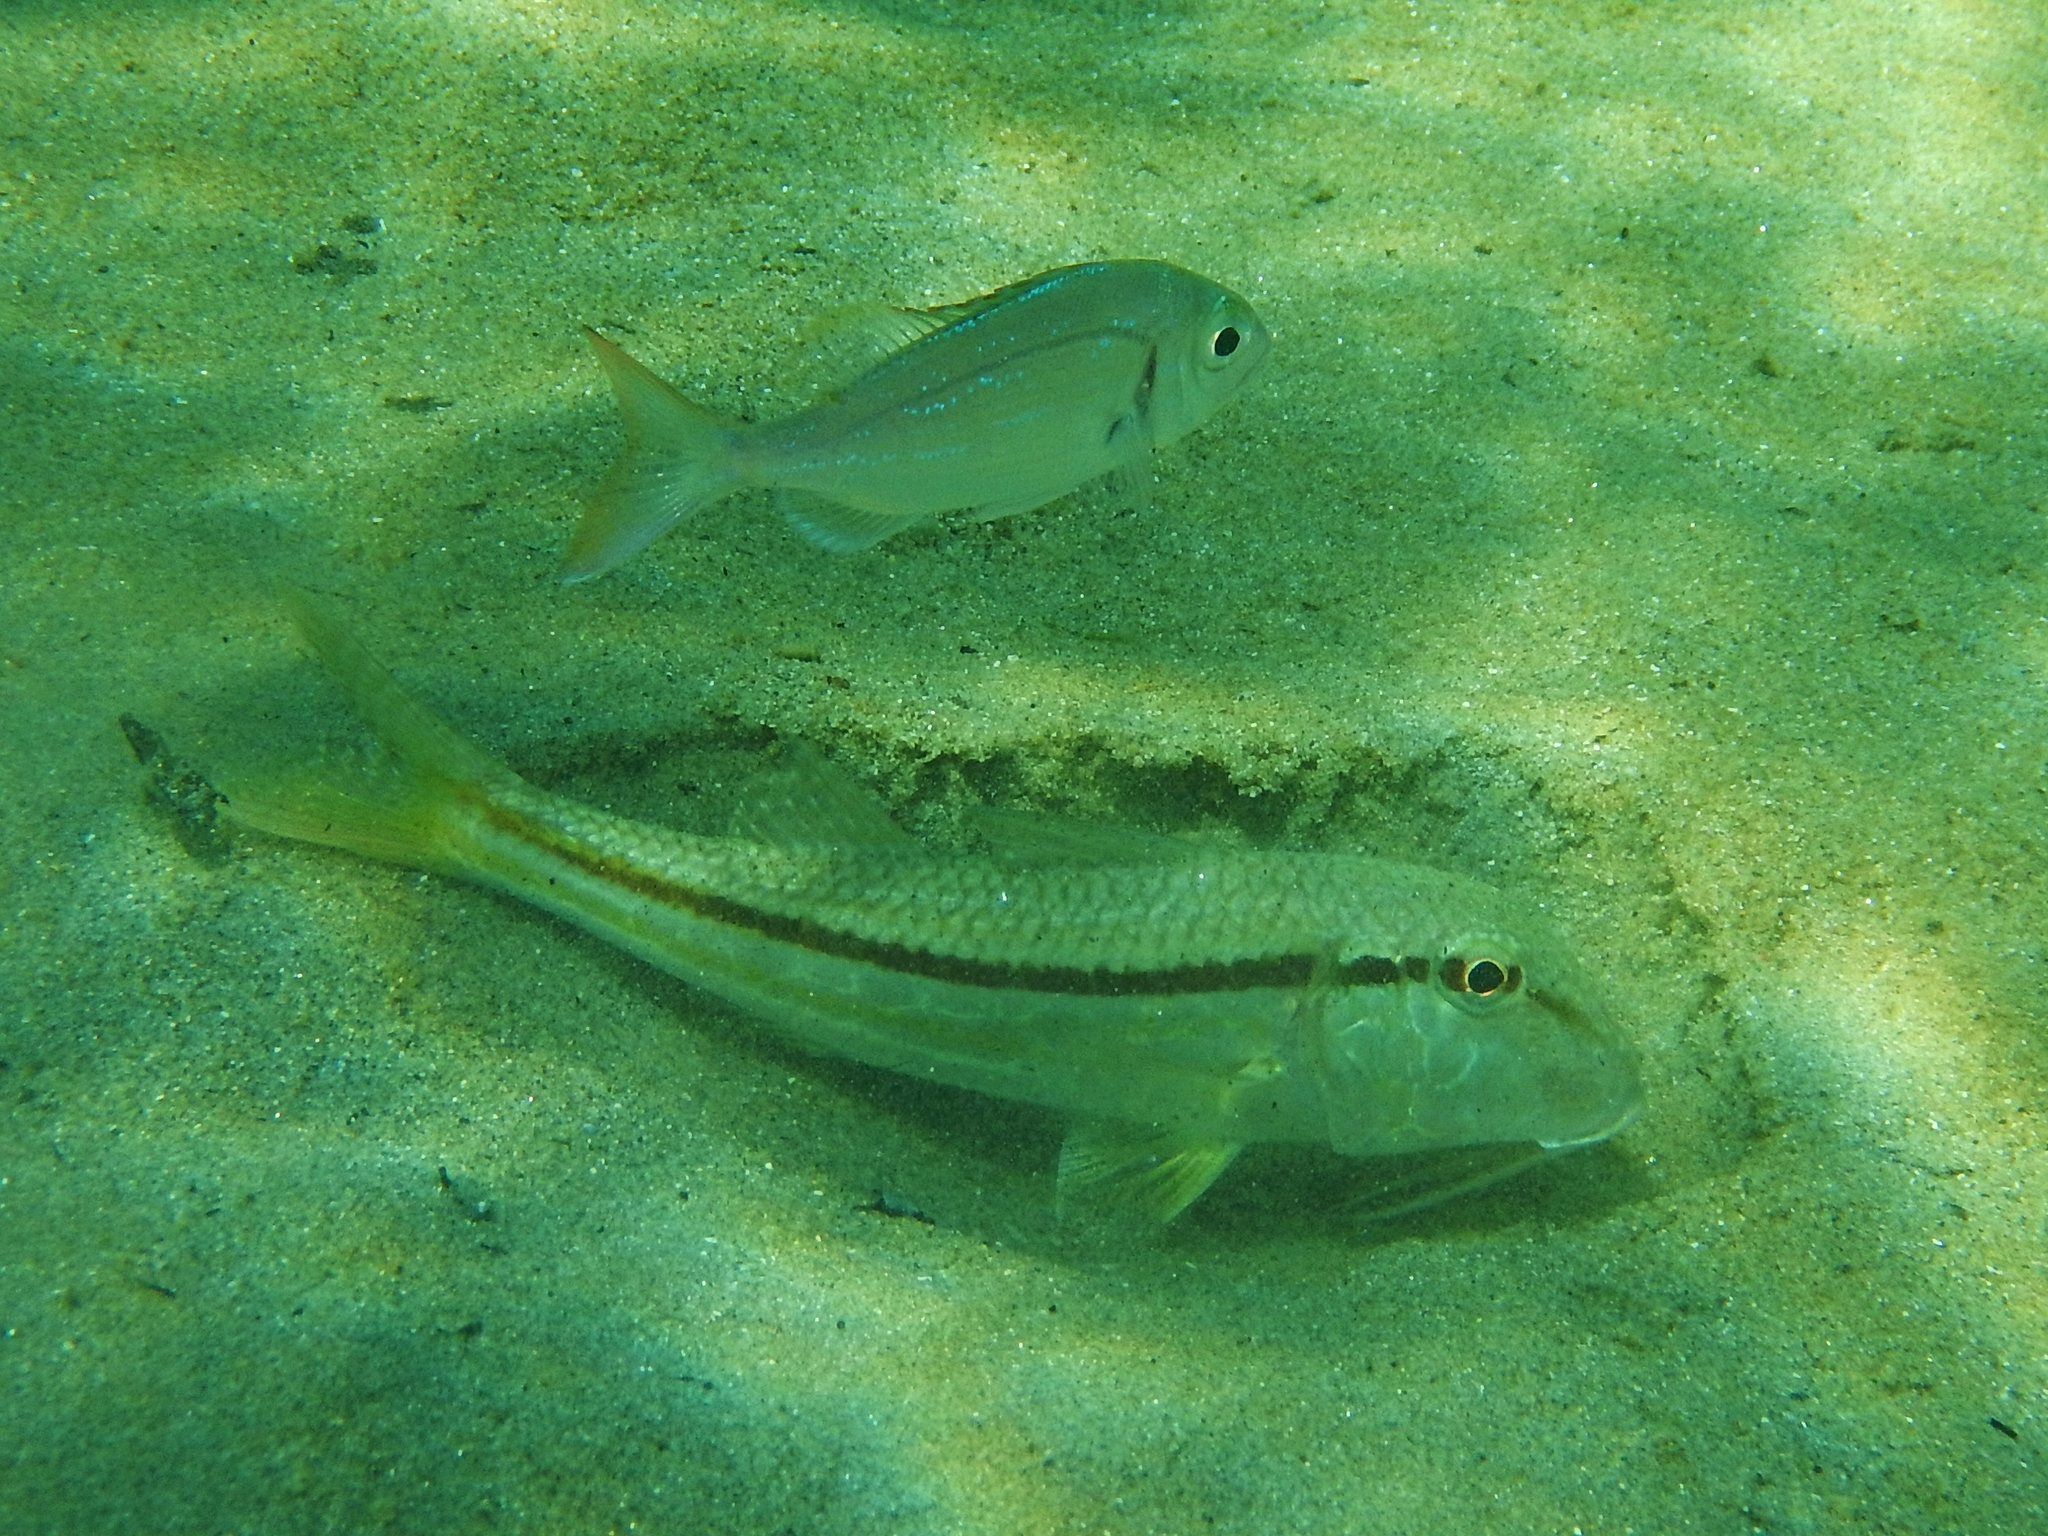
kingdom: Animalia
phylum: Chordata
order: Perciformes
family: Sparidae
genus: Pagellus
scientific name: Pagellus erythrinus
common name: Pandora
